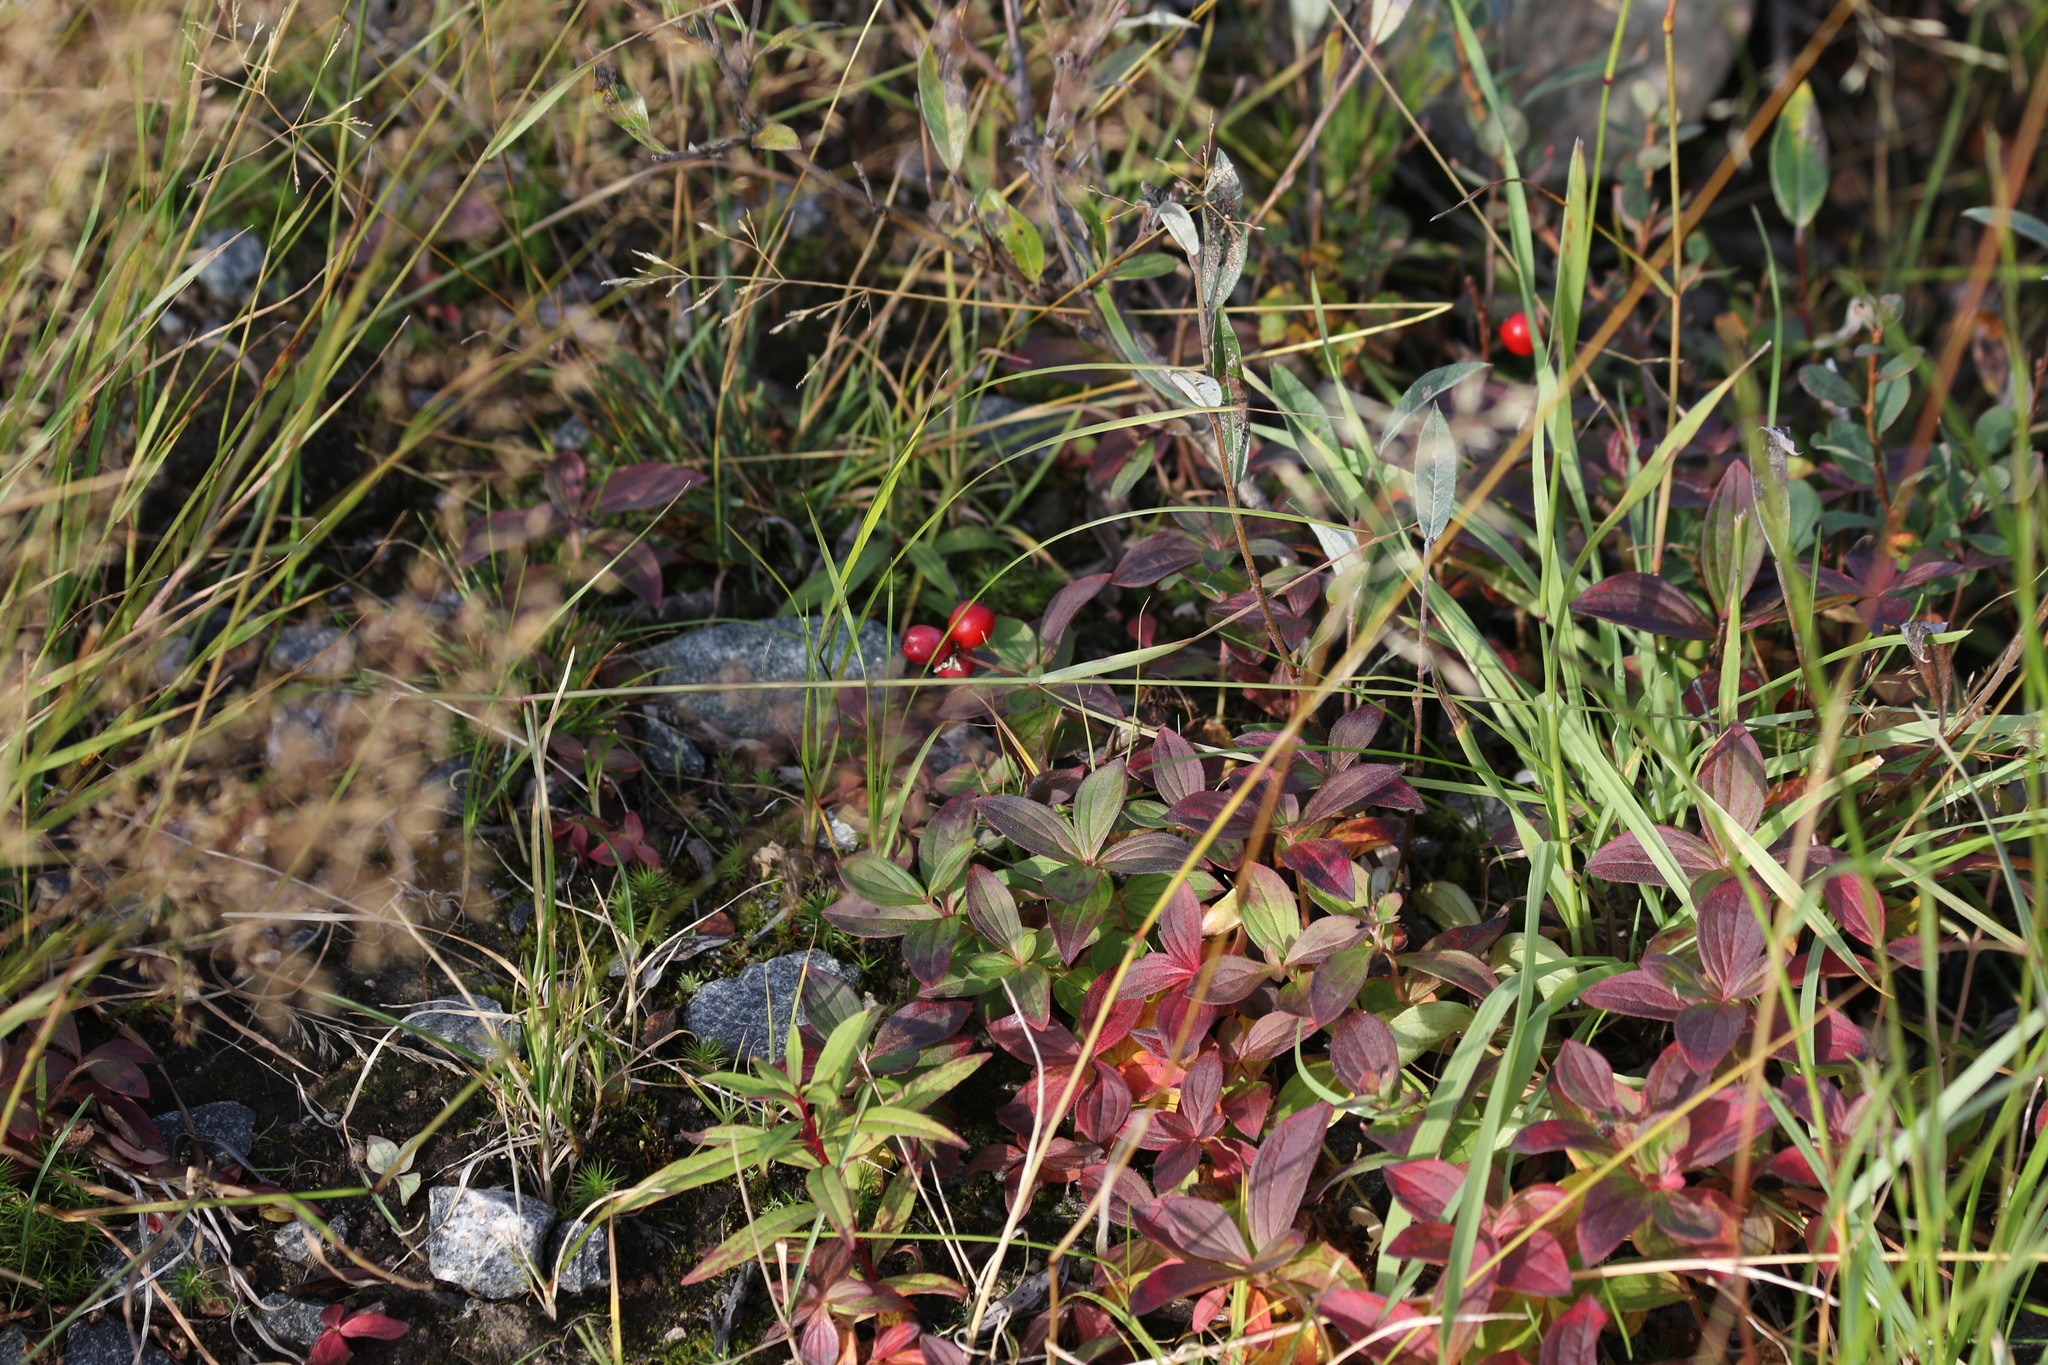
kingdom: Plantae
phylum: Tracheophyta
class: Magnoliopsida
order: Cornales
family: Cornaceae
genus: Cornus
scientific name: Cornus suecica
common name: Dwarf cornel
